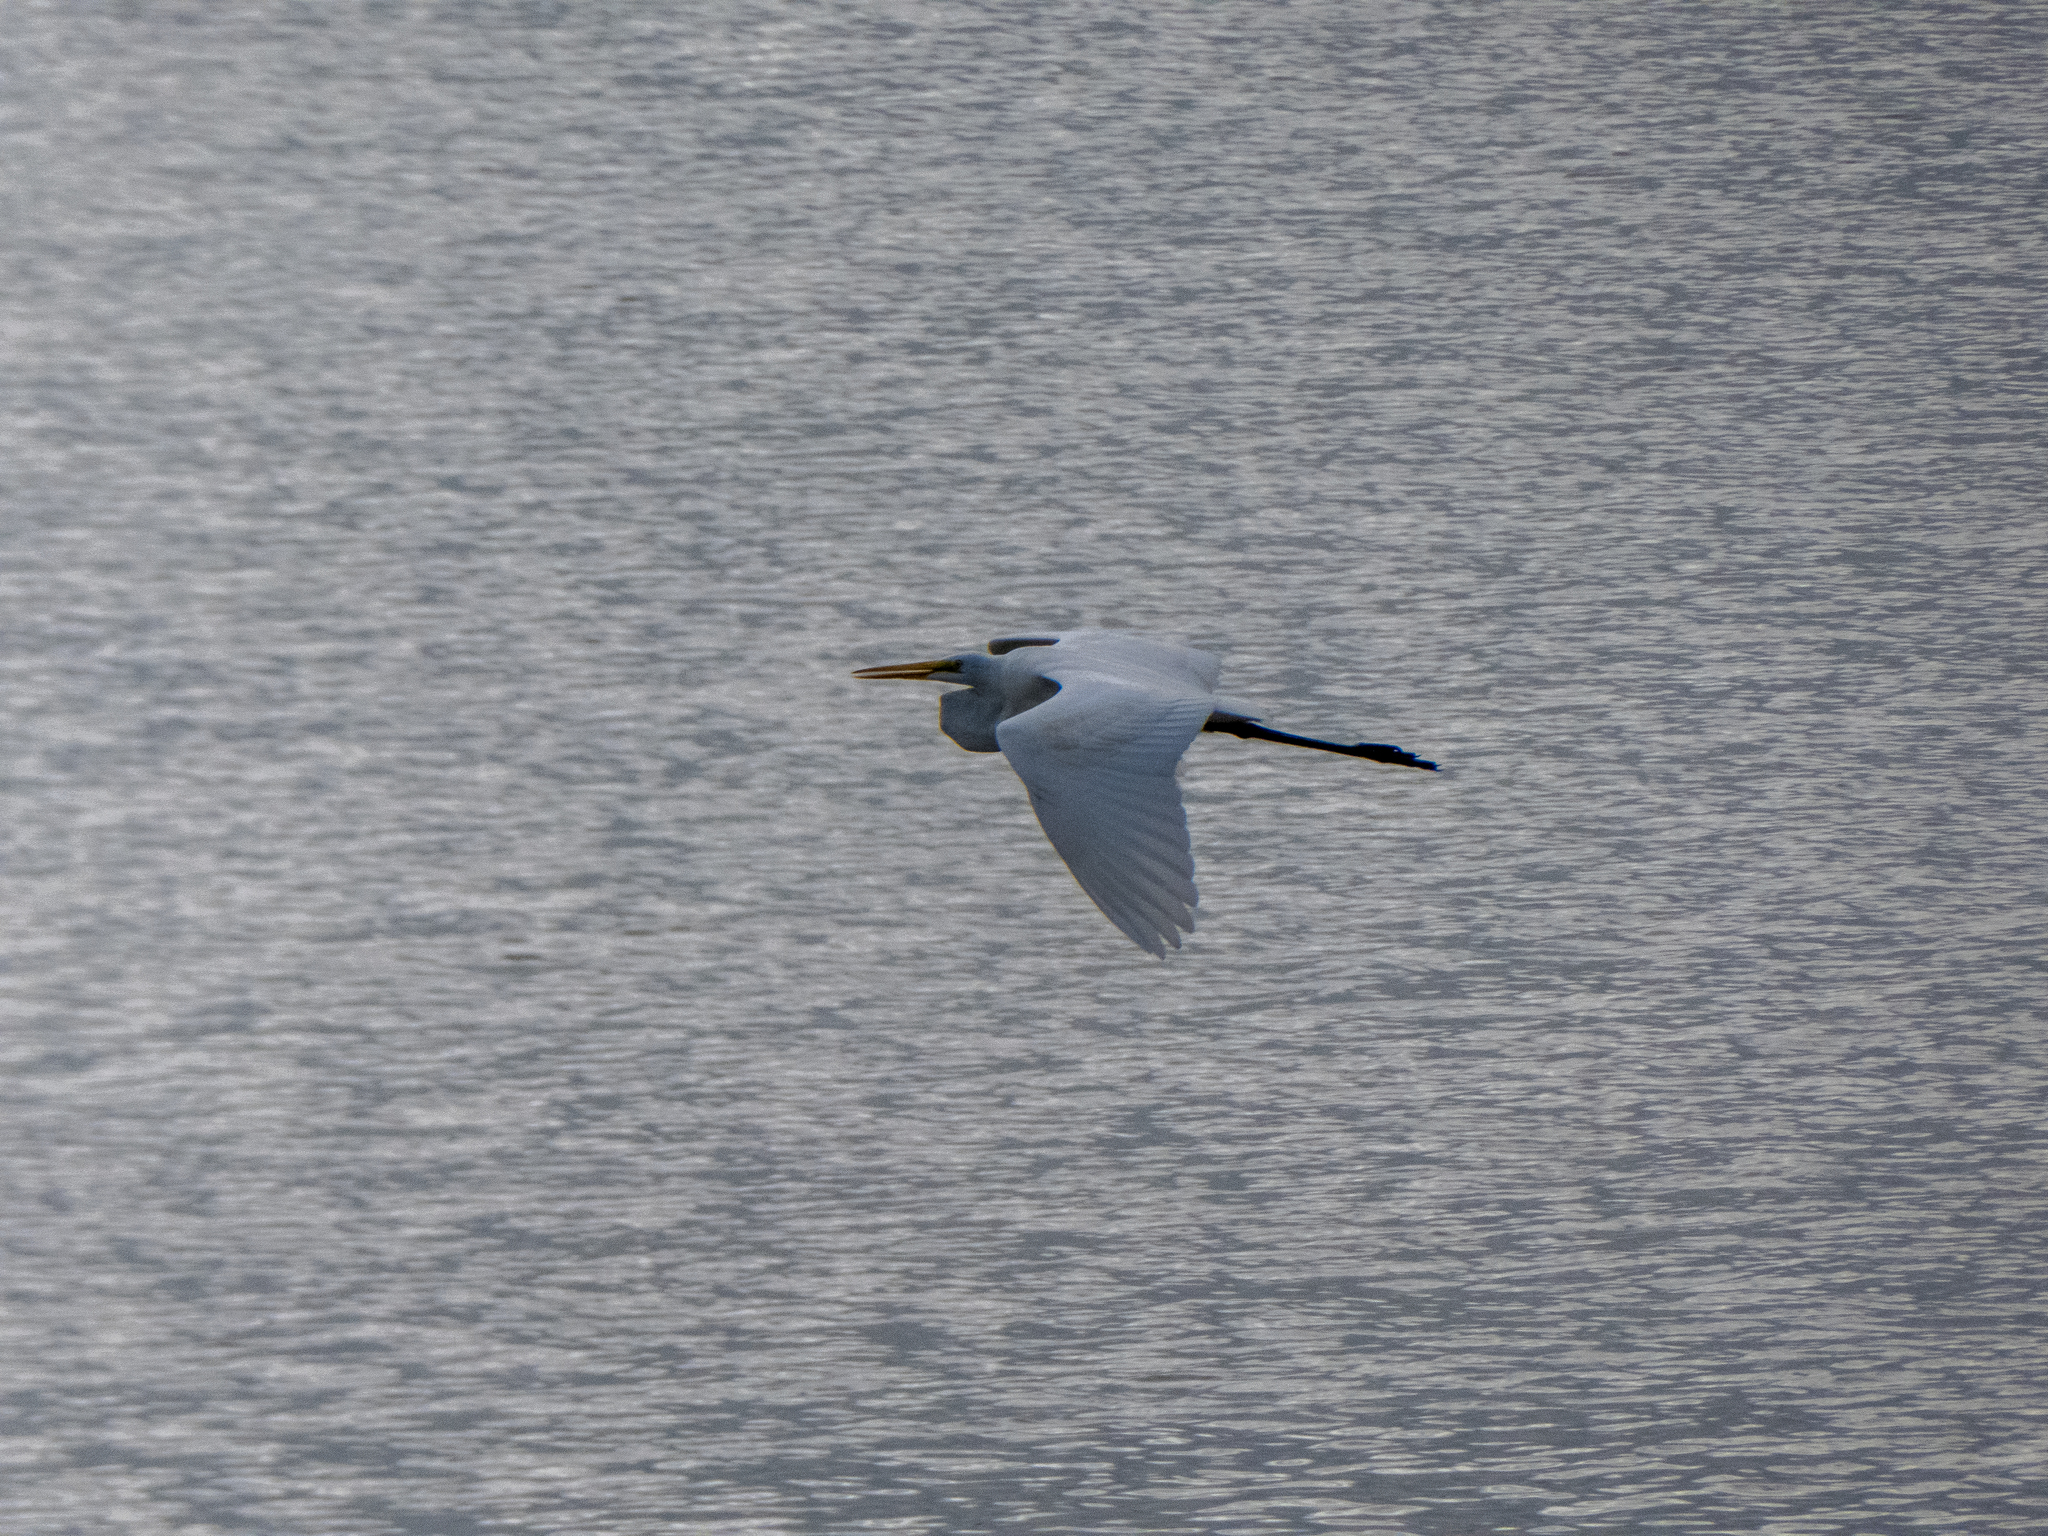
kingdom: Animalia
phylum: Chordata
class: Aves
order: Pelecaniformes
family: Ardeidae
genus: Ardea
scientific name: Ardea alba
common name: Great egret
